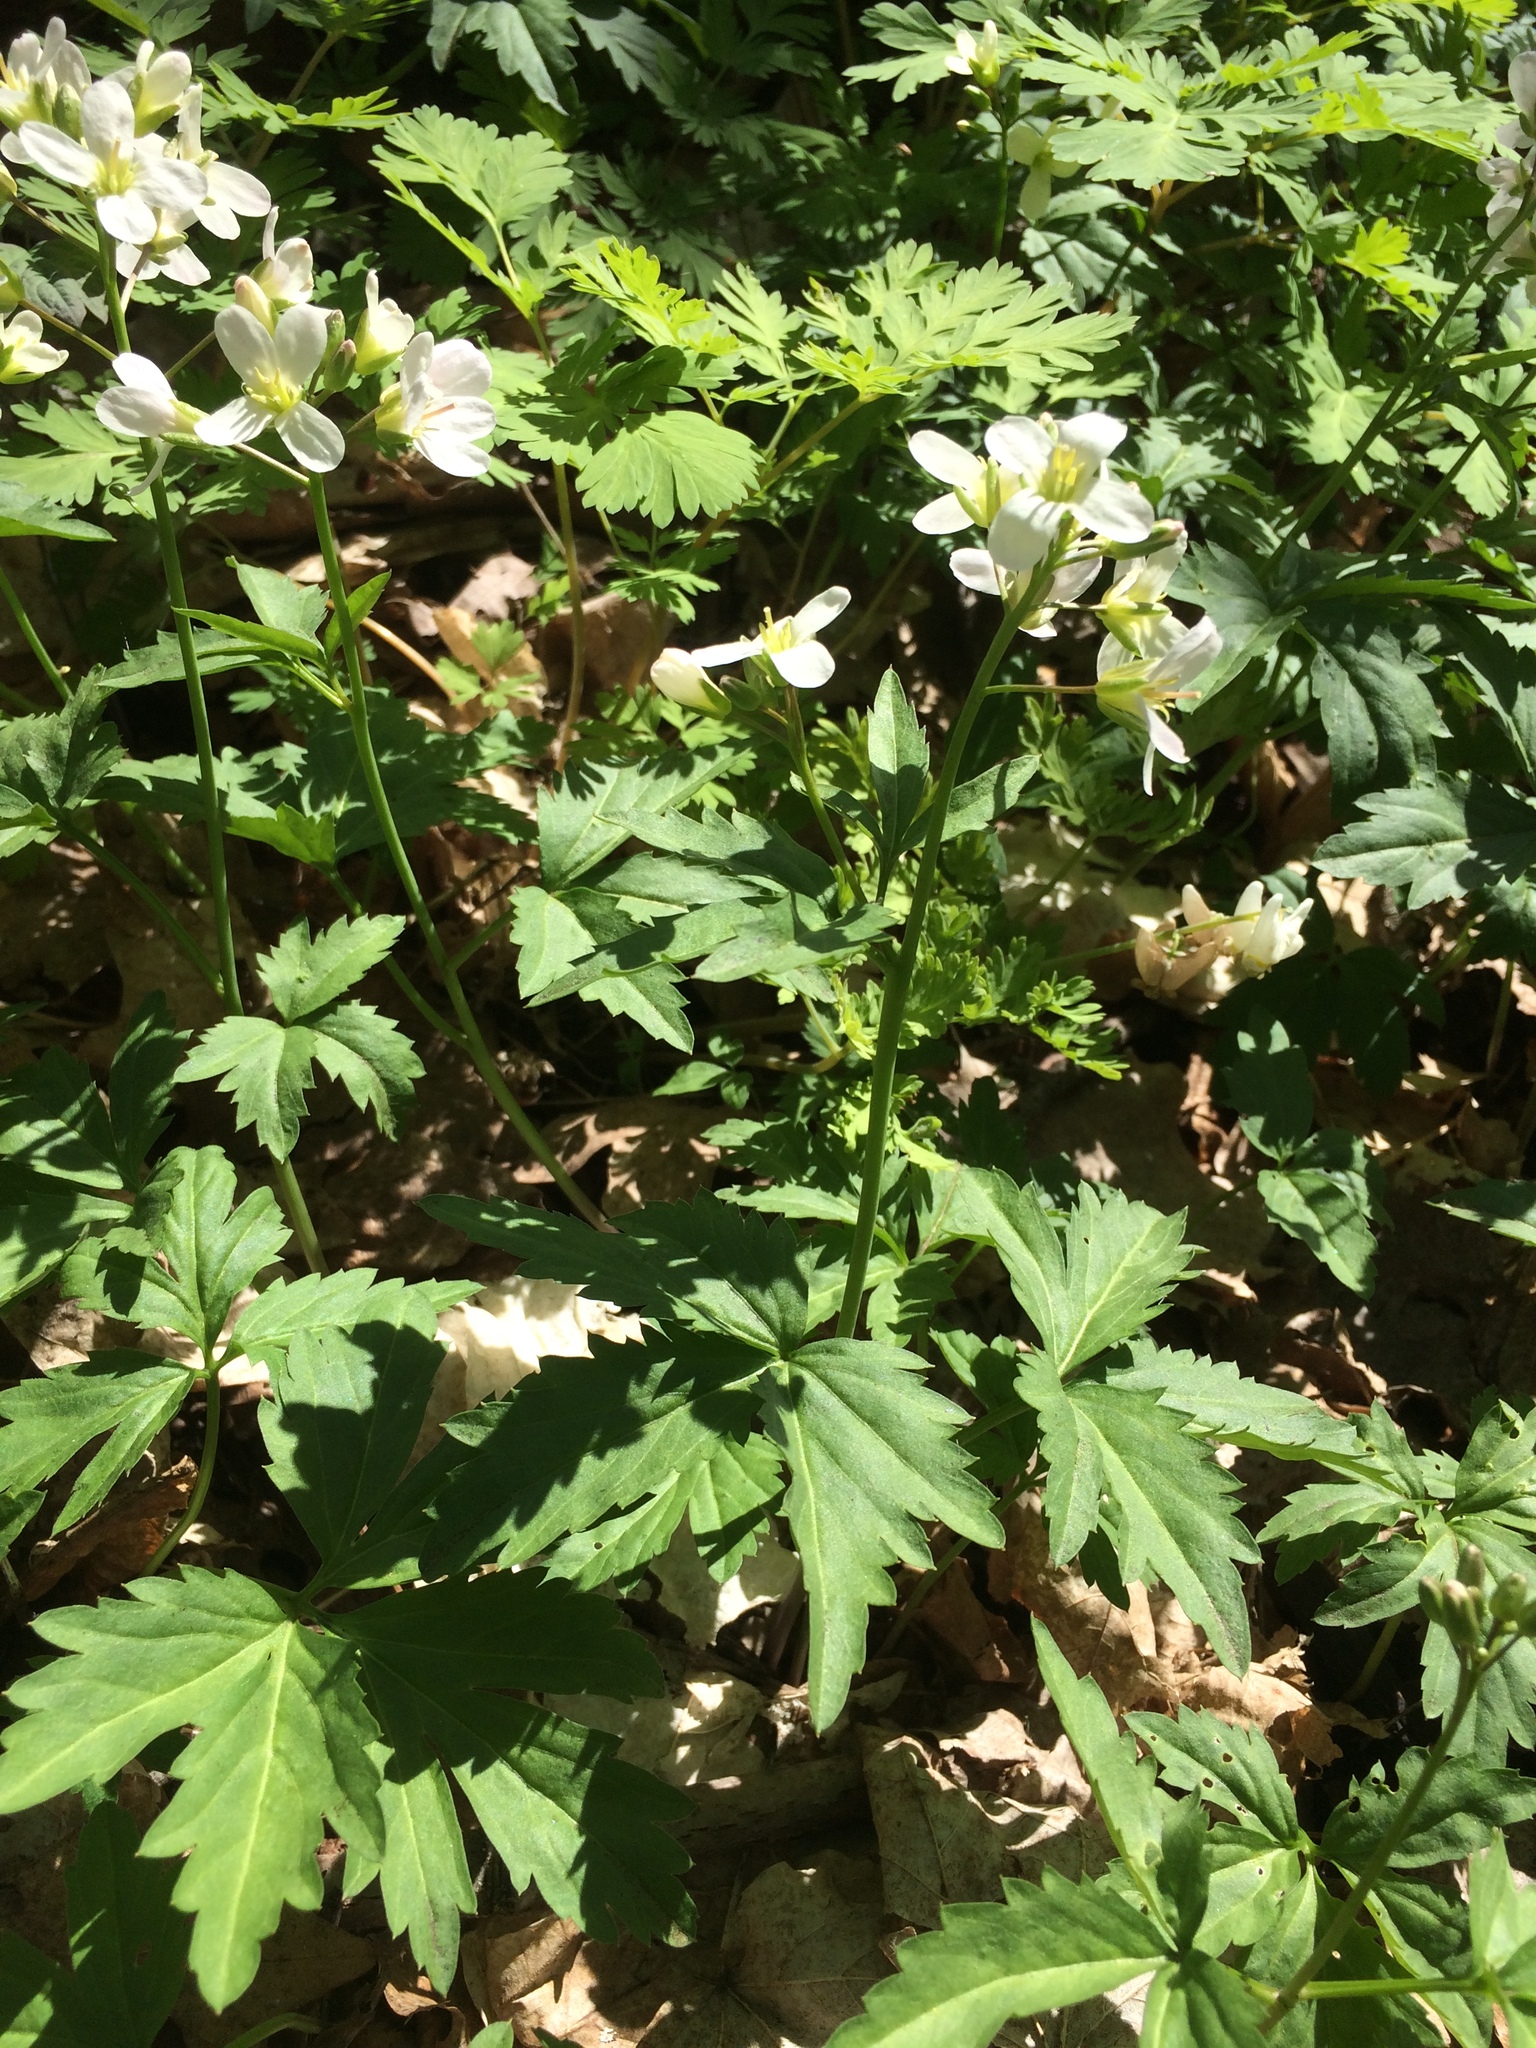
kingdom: Plantae
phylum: Tracheophyta
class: Magnoliopsida
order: Brassicales
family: Brassicaceae
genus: Cardamine
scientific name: Cardamine maxima
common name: Great bittercress
